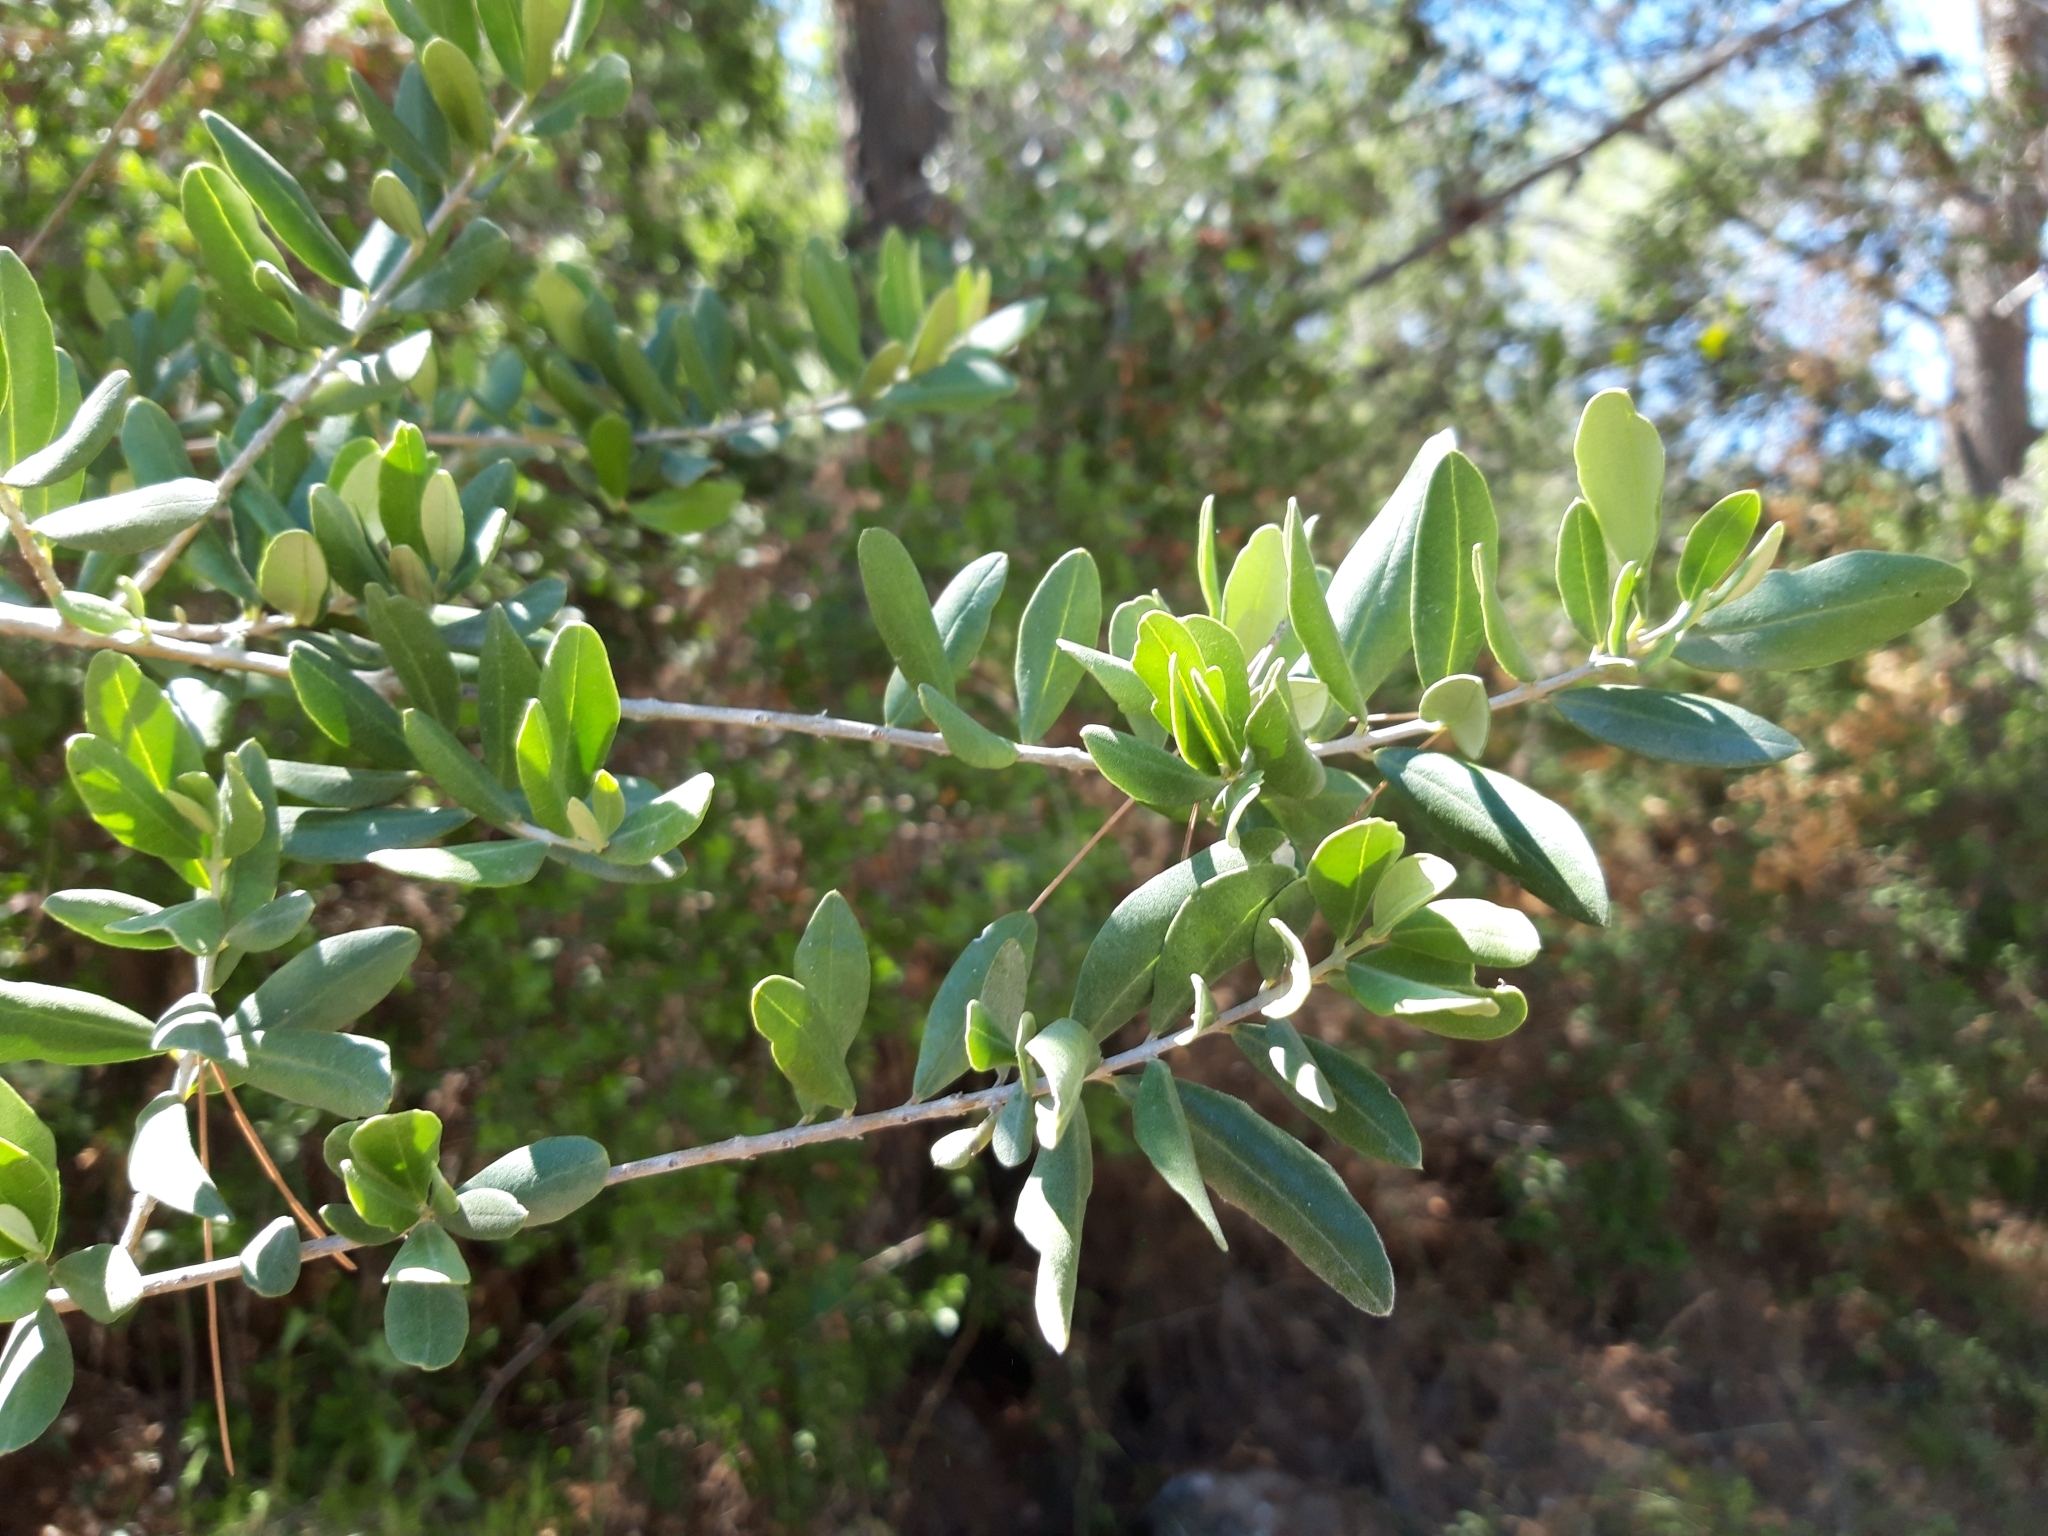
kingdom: Plantae
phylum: Tracheophyta
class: Magnoliopsida
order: Lamiales
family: Oleaceae
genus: Olea
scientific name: Olea europaea
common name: Olive
